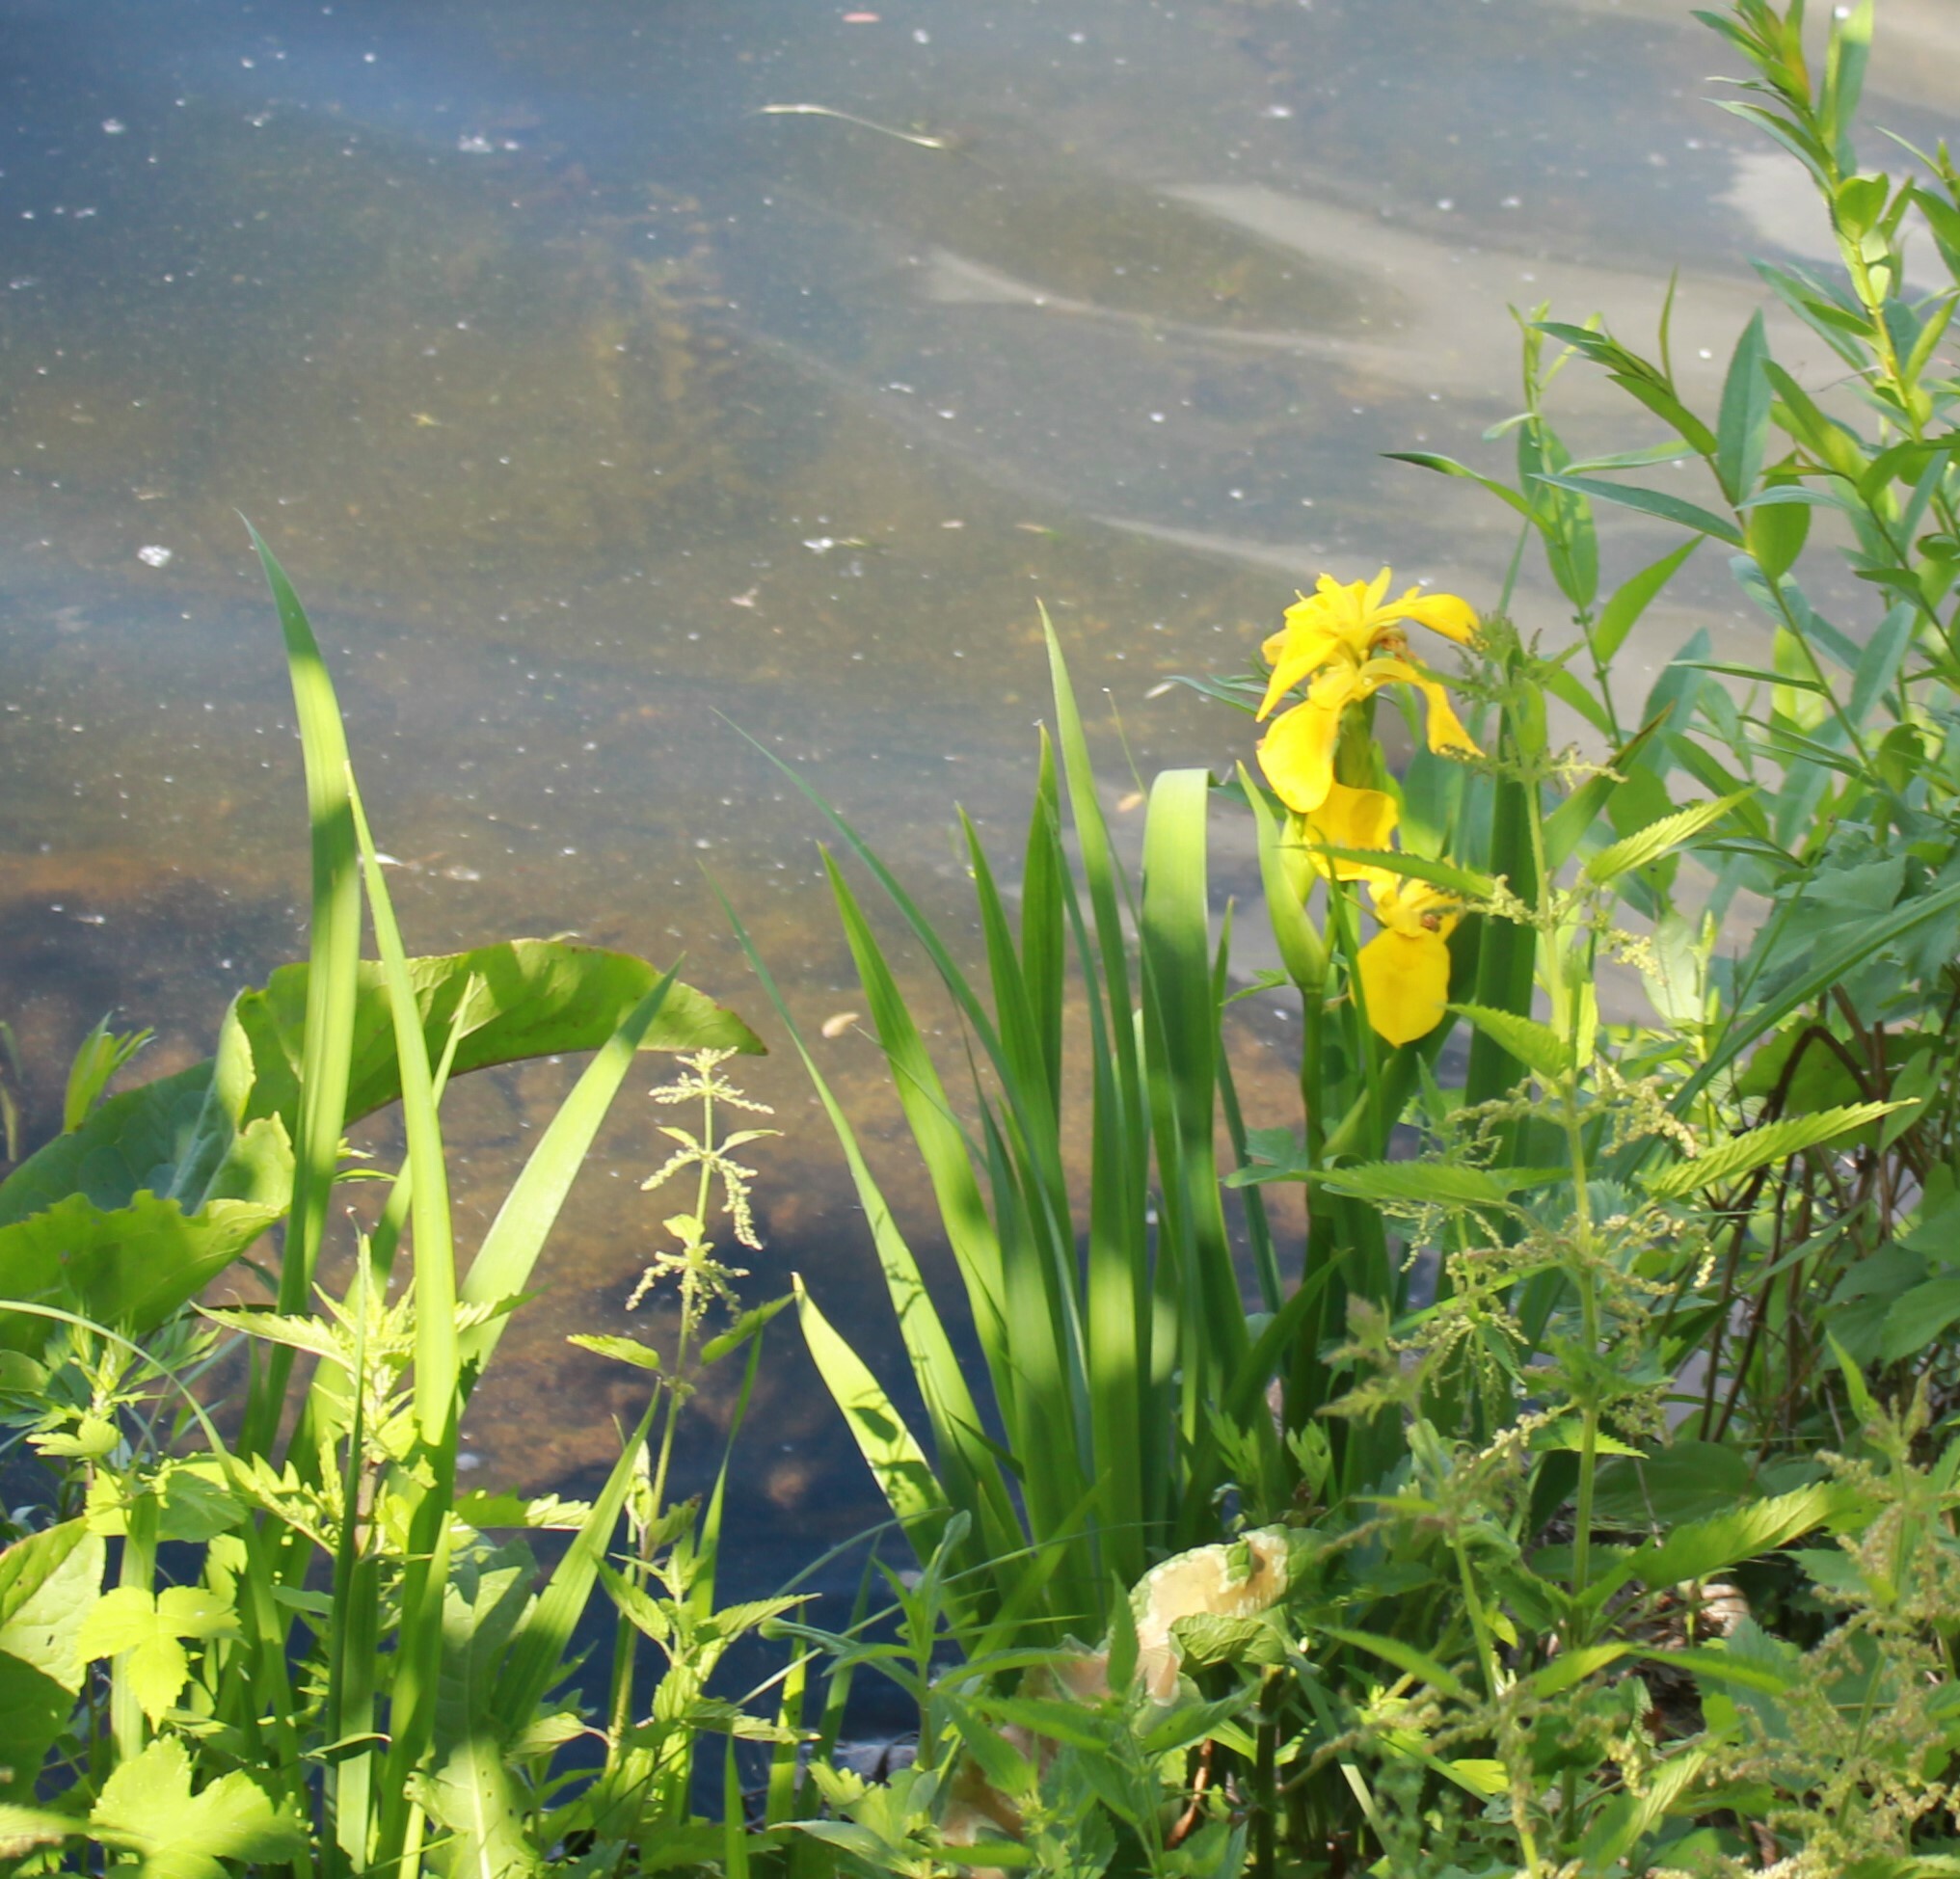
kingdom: Plantae
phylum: Tracheophyta
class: Liliopsida
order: Asparagales
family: Iridaceae
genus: Iris
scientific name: Iris pseudacorus
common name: Yellow flag
